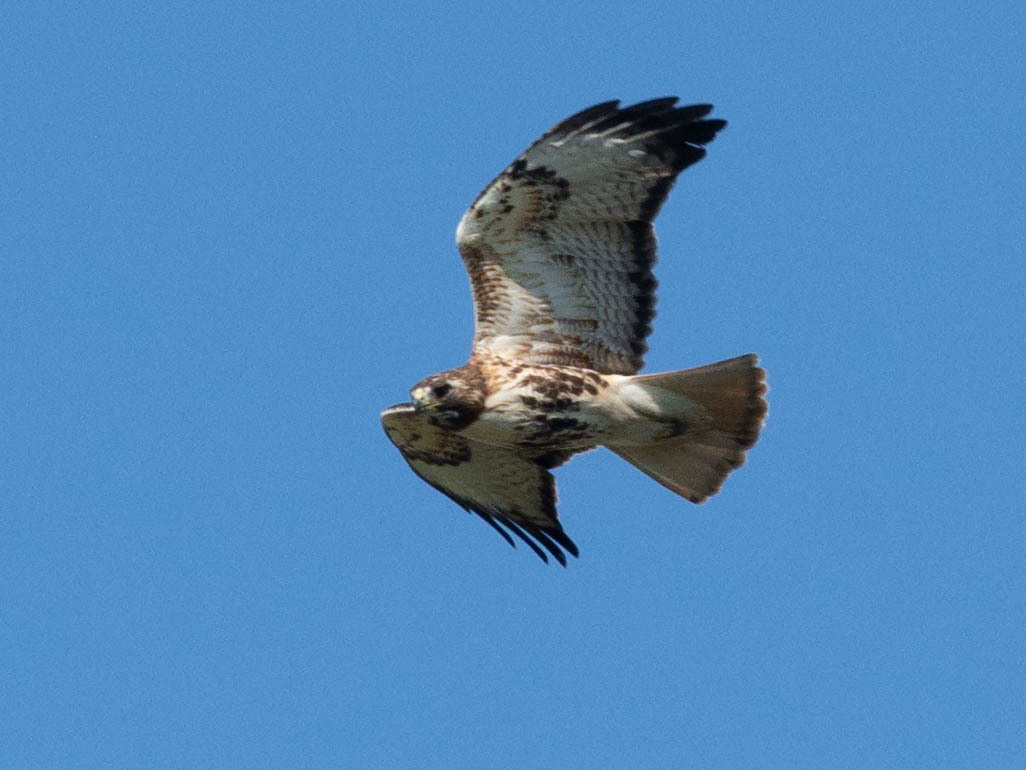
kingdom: Animalia
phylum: Chordata
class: Aves
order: Accipitriformes
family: Accipitridae
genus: Buteo
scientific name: Buteo jamaicensis
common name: Red-tailed hawk
